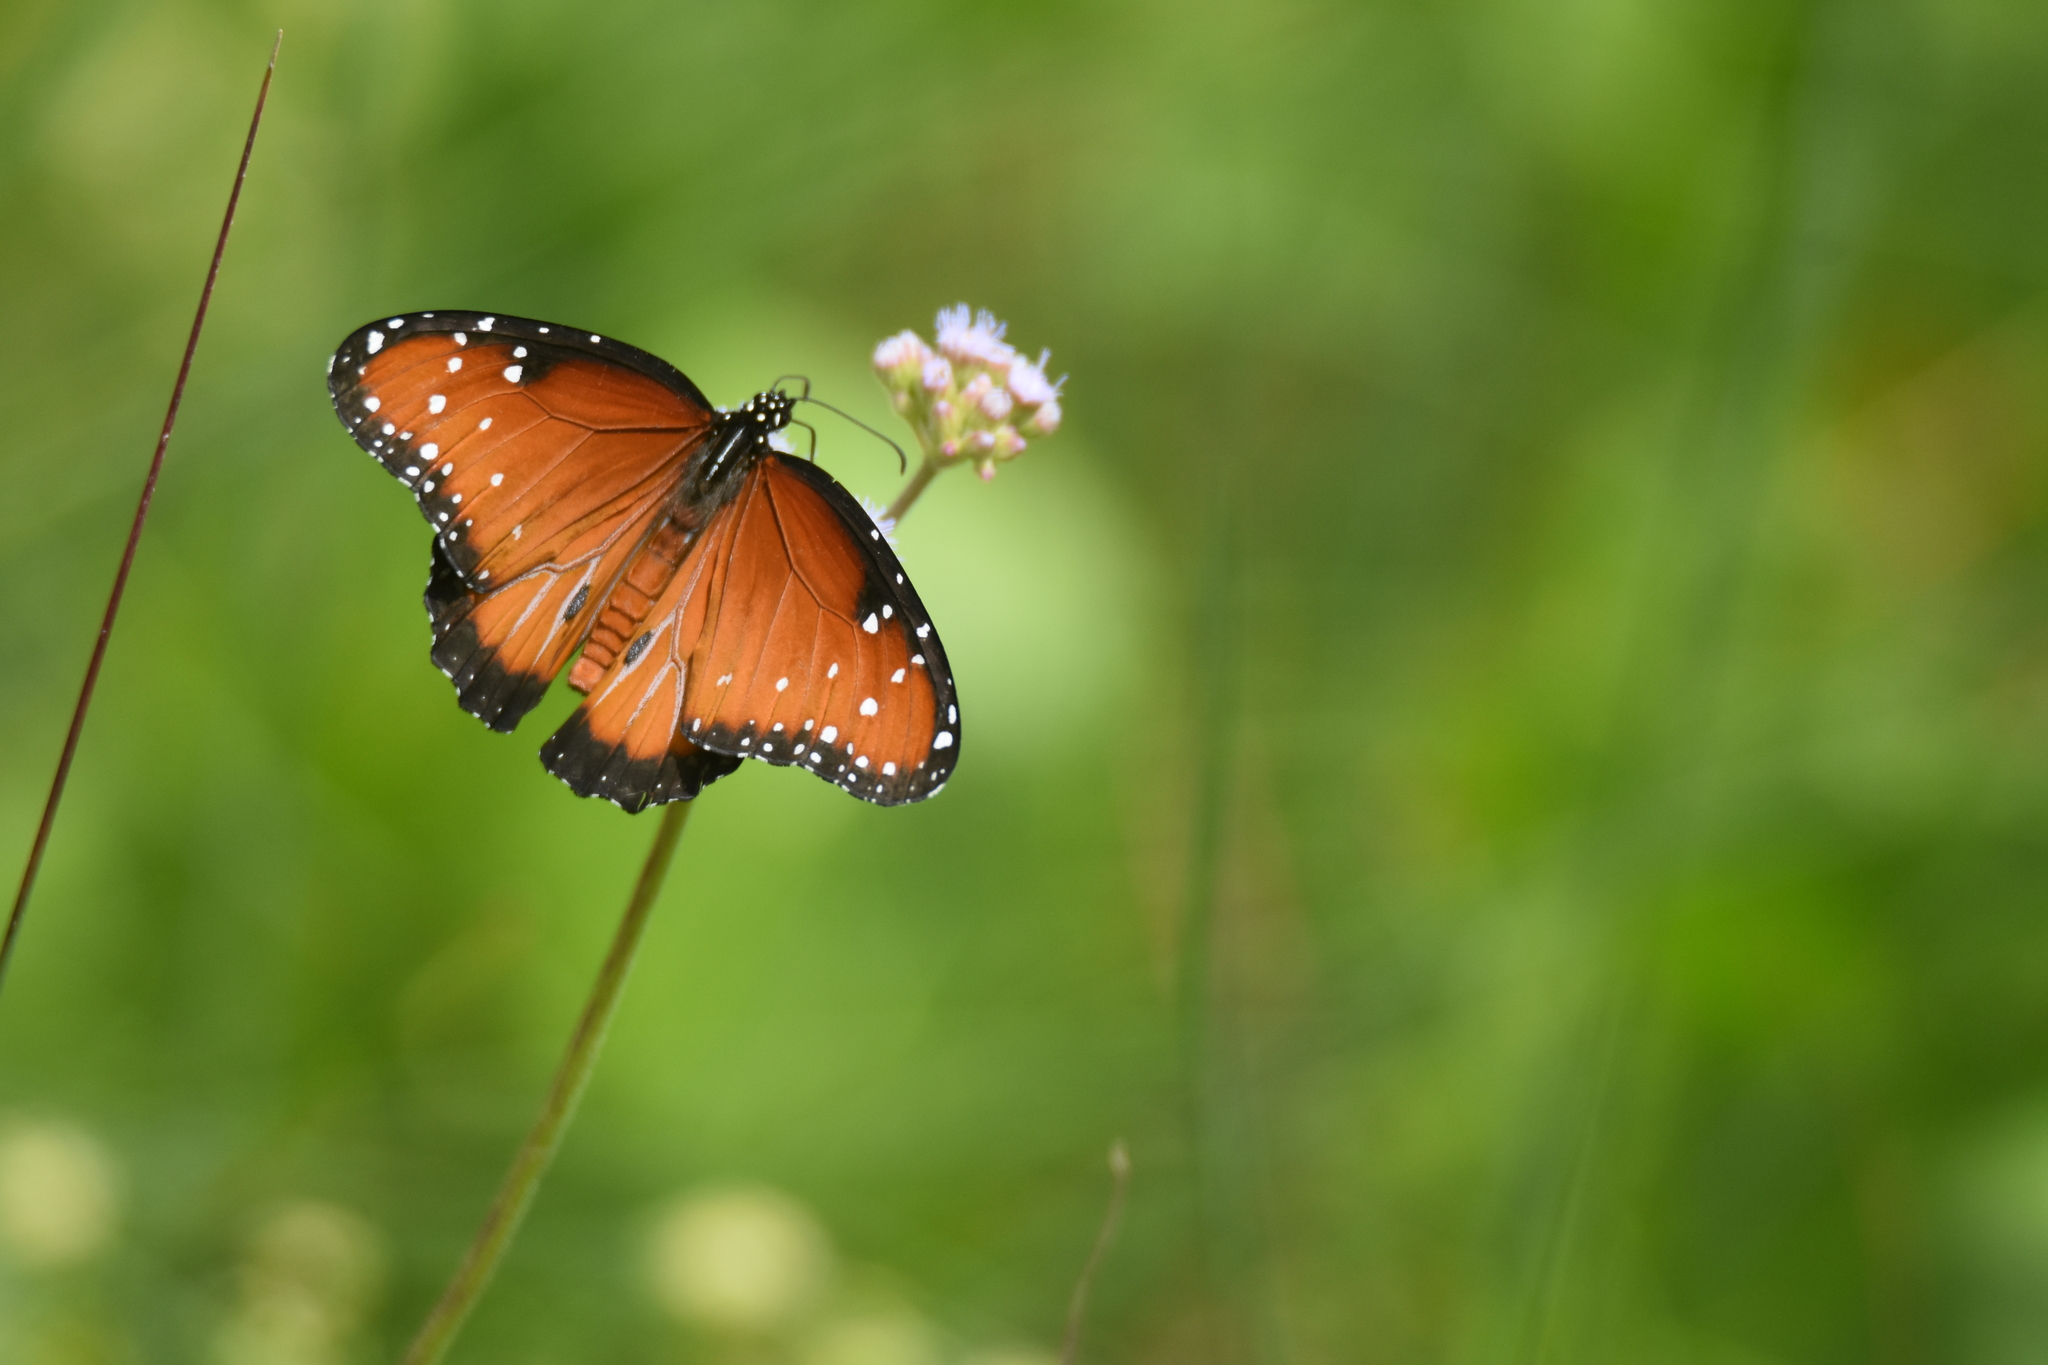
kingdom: Animalia
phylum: Arthropoda
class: Insecta
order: Lepidoptera
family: Nymphalidae
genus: Danaus
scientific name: Danaus gilippus
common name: Queen
